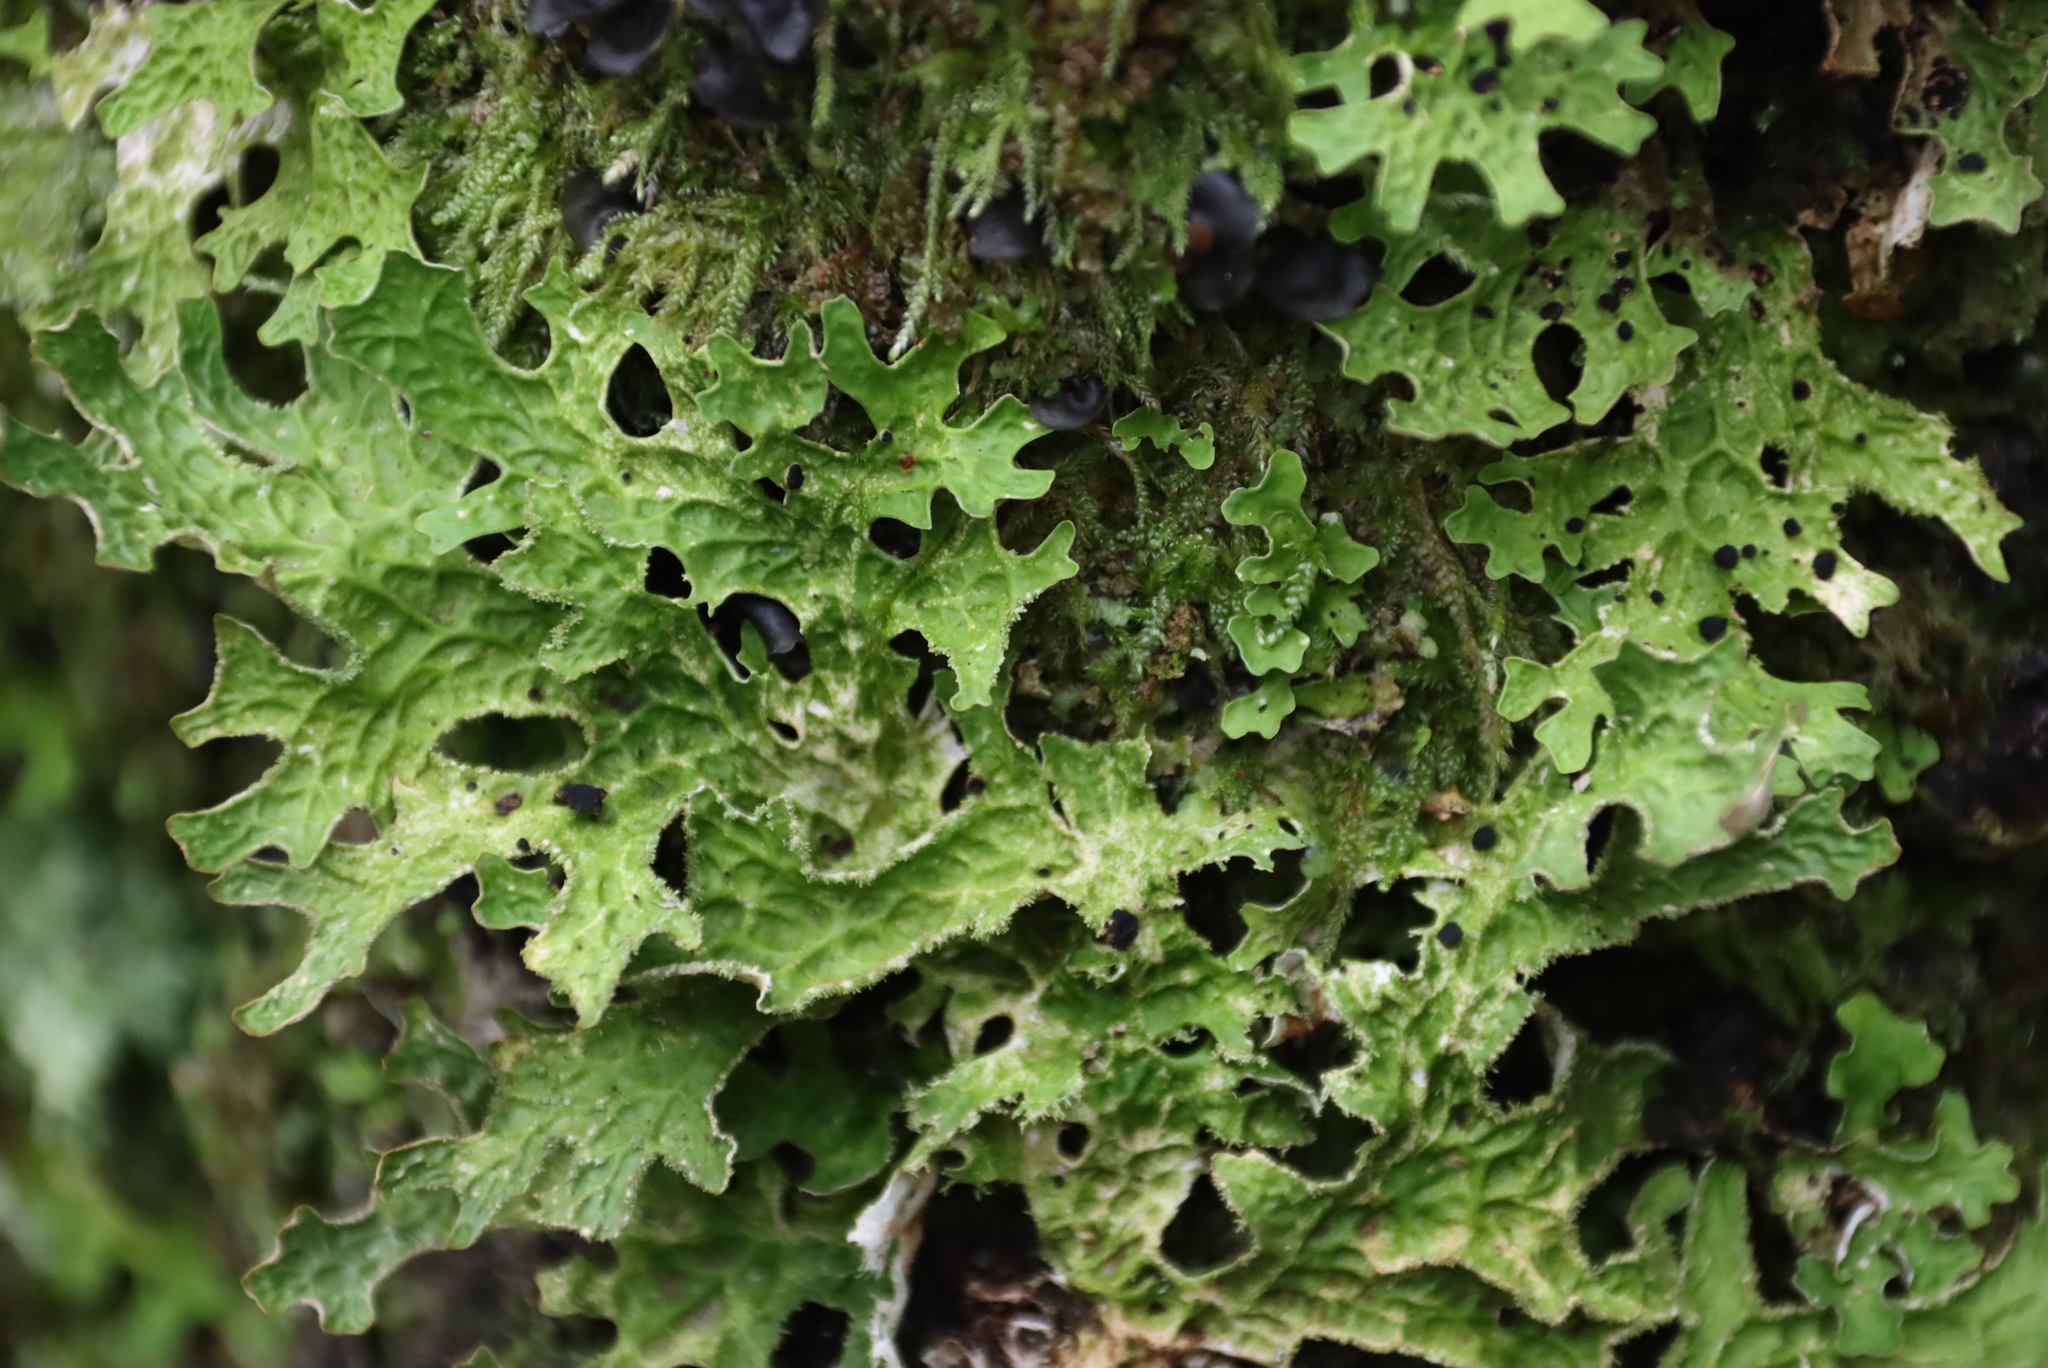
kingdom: Fungi
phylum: Ascomycota
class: Lecanoromycetes
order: Peltigerales
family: Lobariaceae
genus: Lobaria
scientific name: Lobaria pulmonaria
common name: Lungwort
